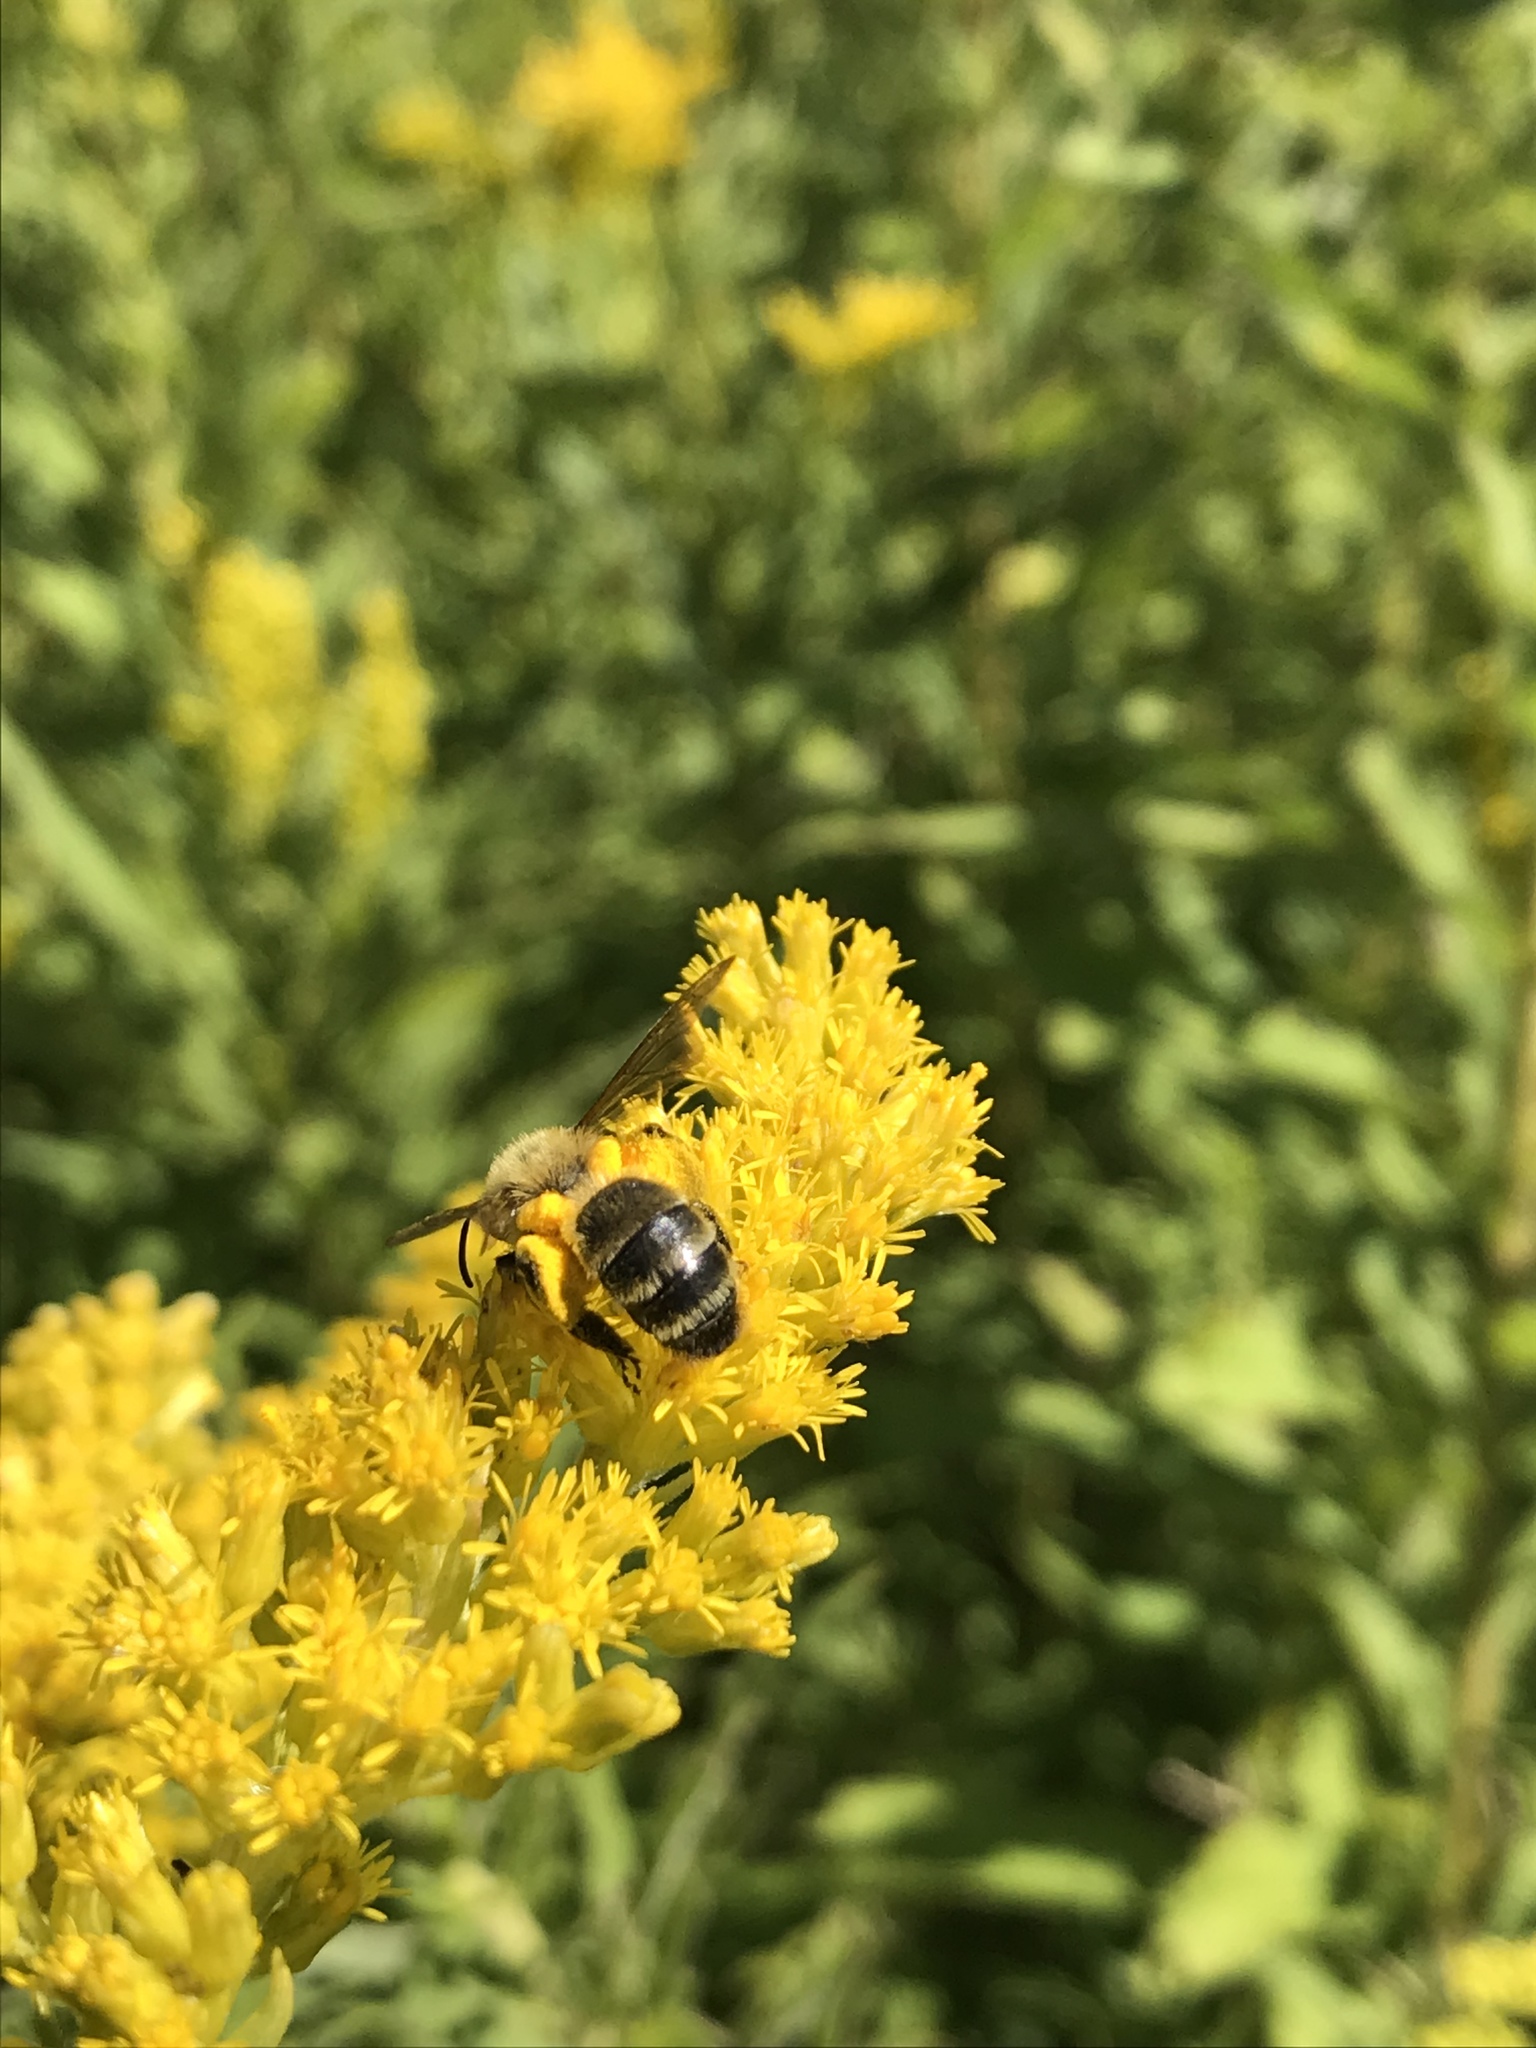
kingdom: Animalia
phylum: Arthropoda
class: Insecta
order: Hymenoptera
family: Andrenidae
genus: Andrena
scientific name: Andrena hirticincta
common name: Hairy-banded mining bee
